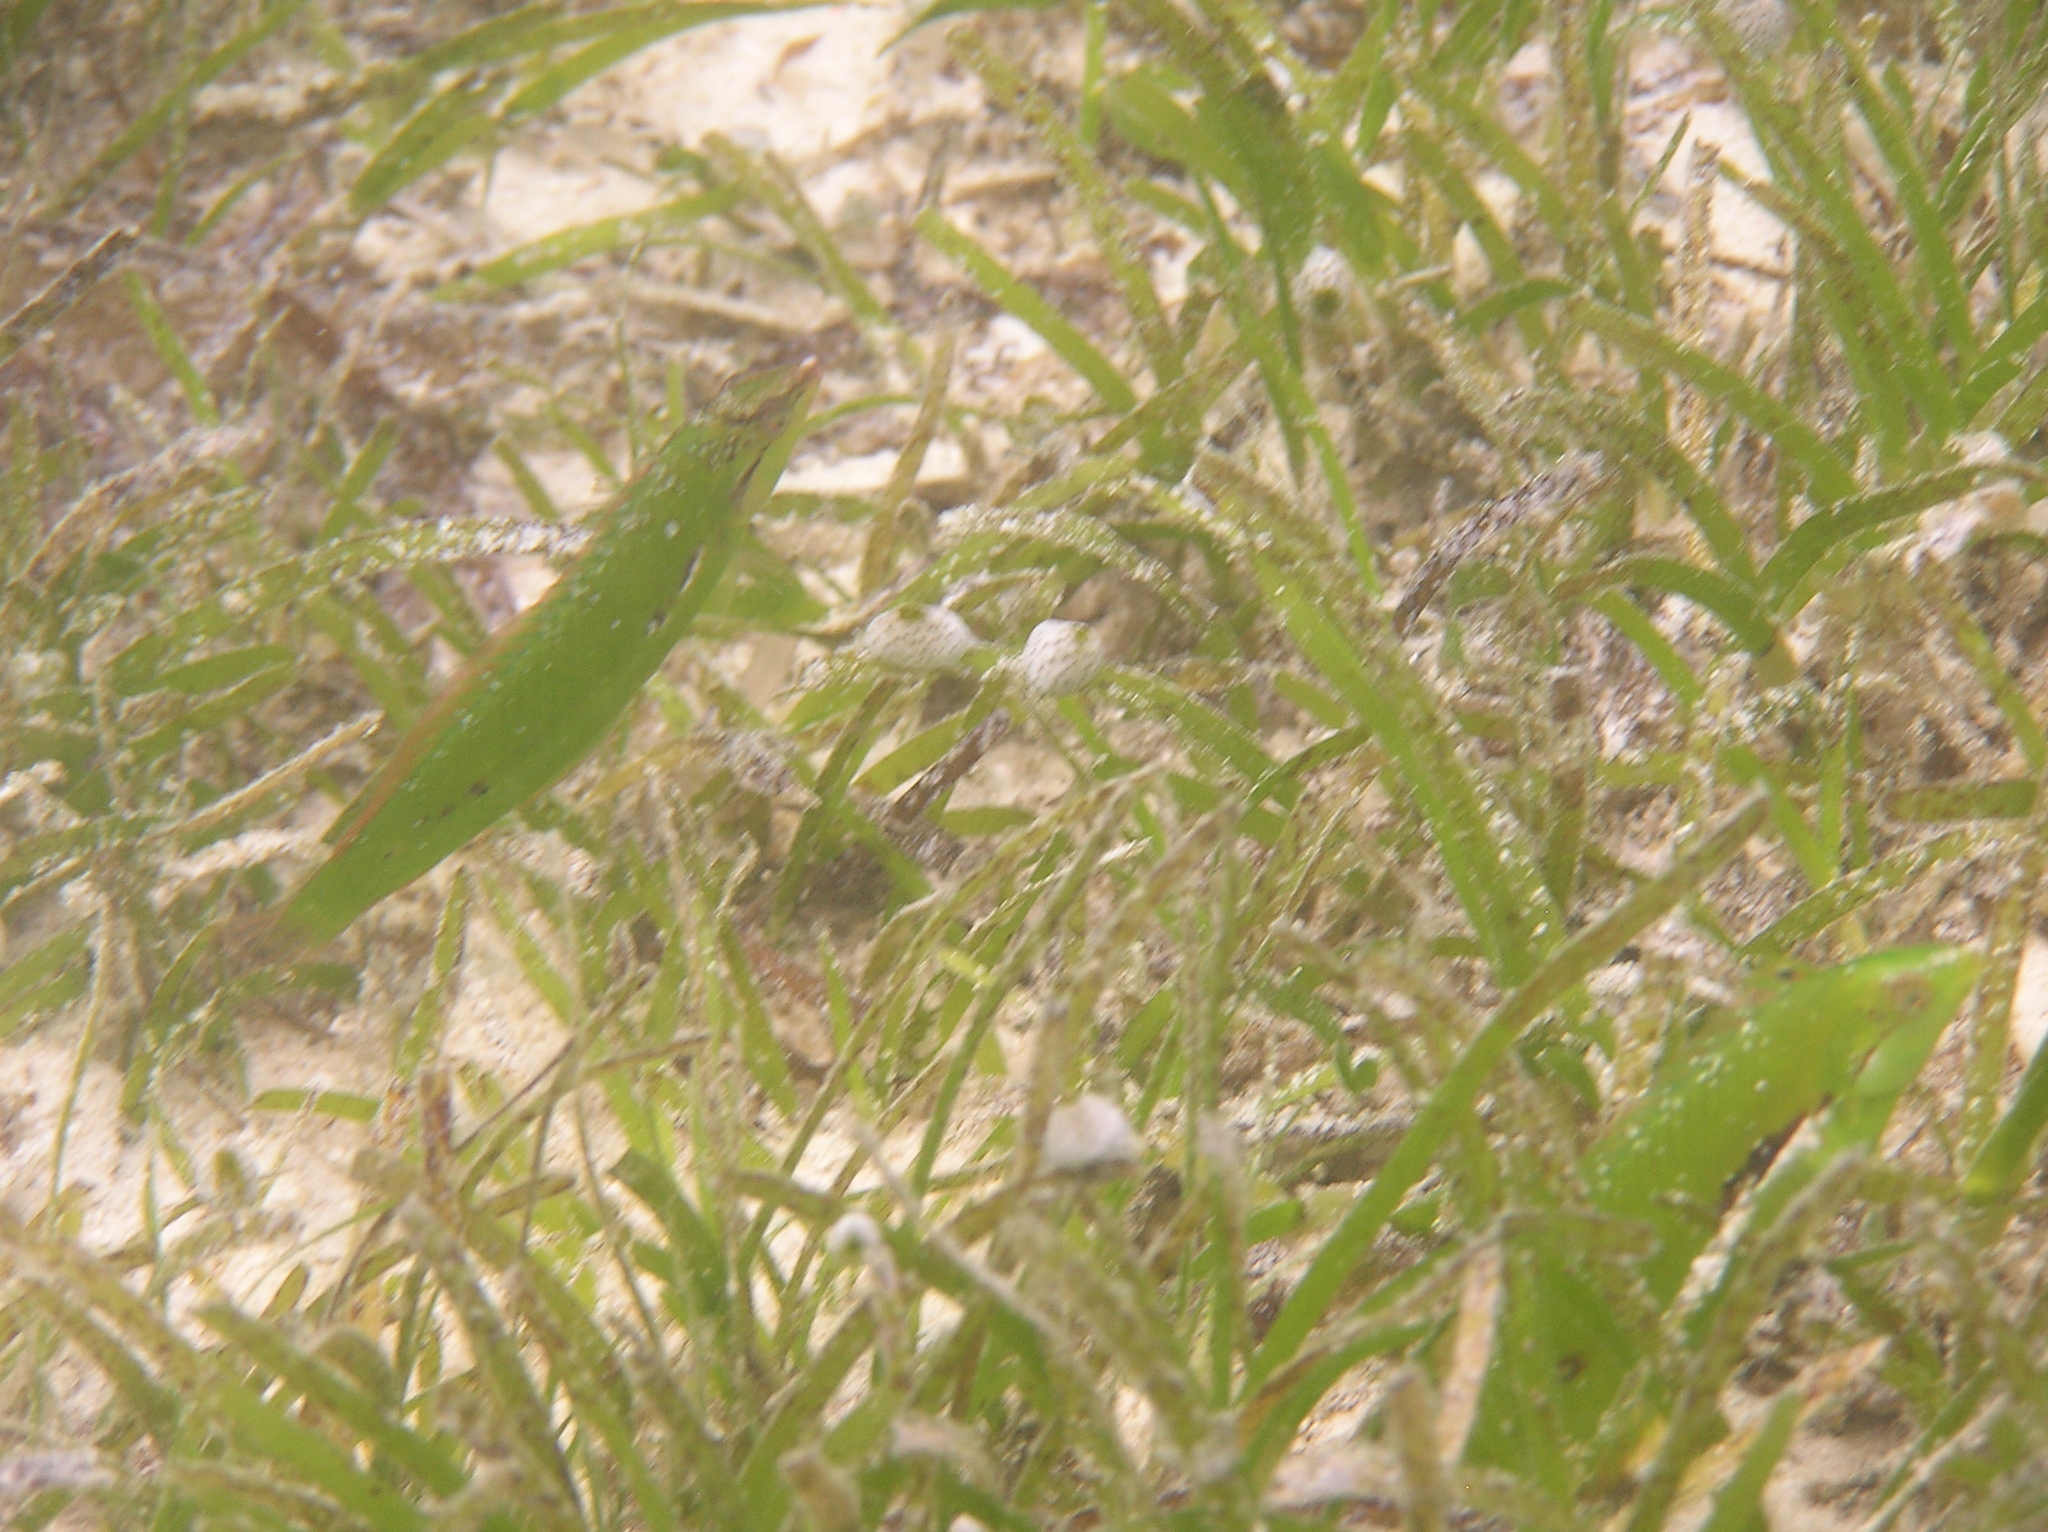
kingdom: Animalia
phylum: Chordata
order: Perciformes
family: Labridae
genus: Novaculoides
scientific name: Novaculoides macrolepidotus
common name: Seagrass wrasse
